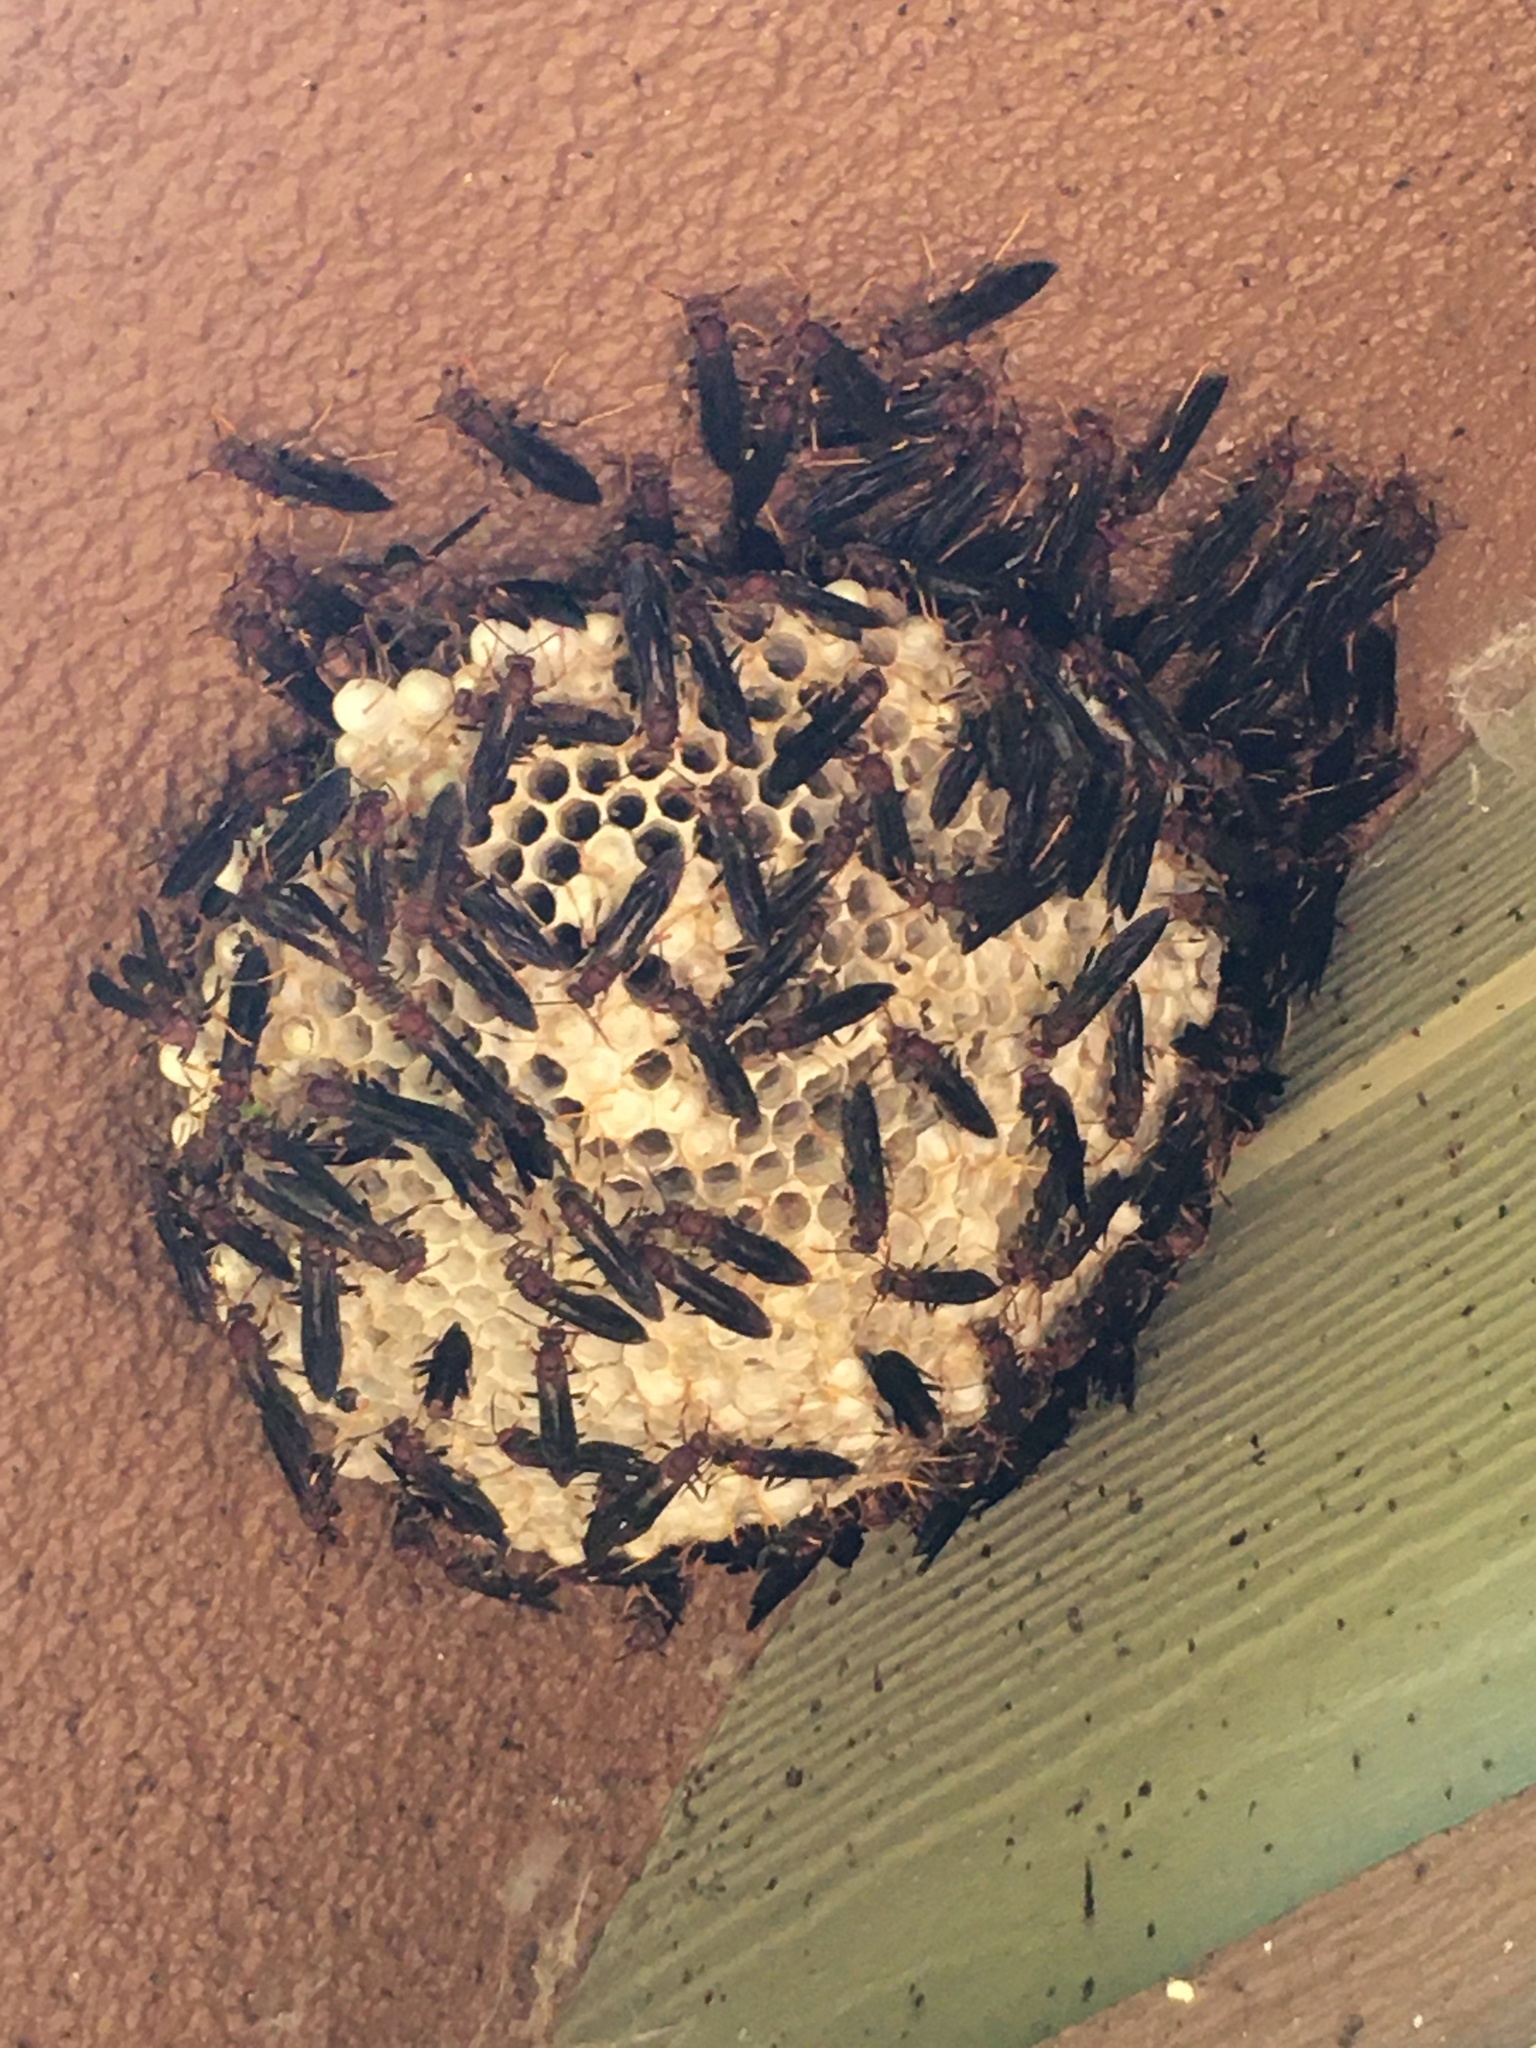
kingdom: Animalia
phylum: Arthropoda
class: Insecta
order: Hymenoptera
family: Eumenidae
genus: Polistes
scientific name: Polistes
